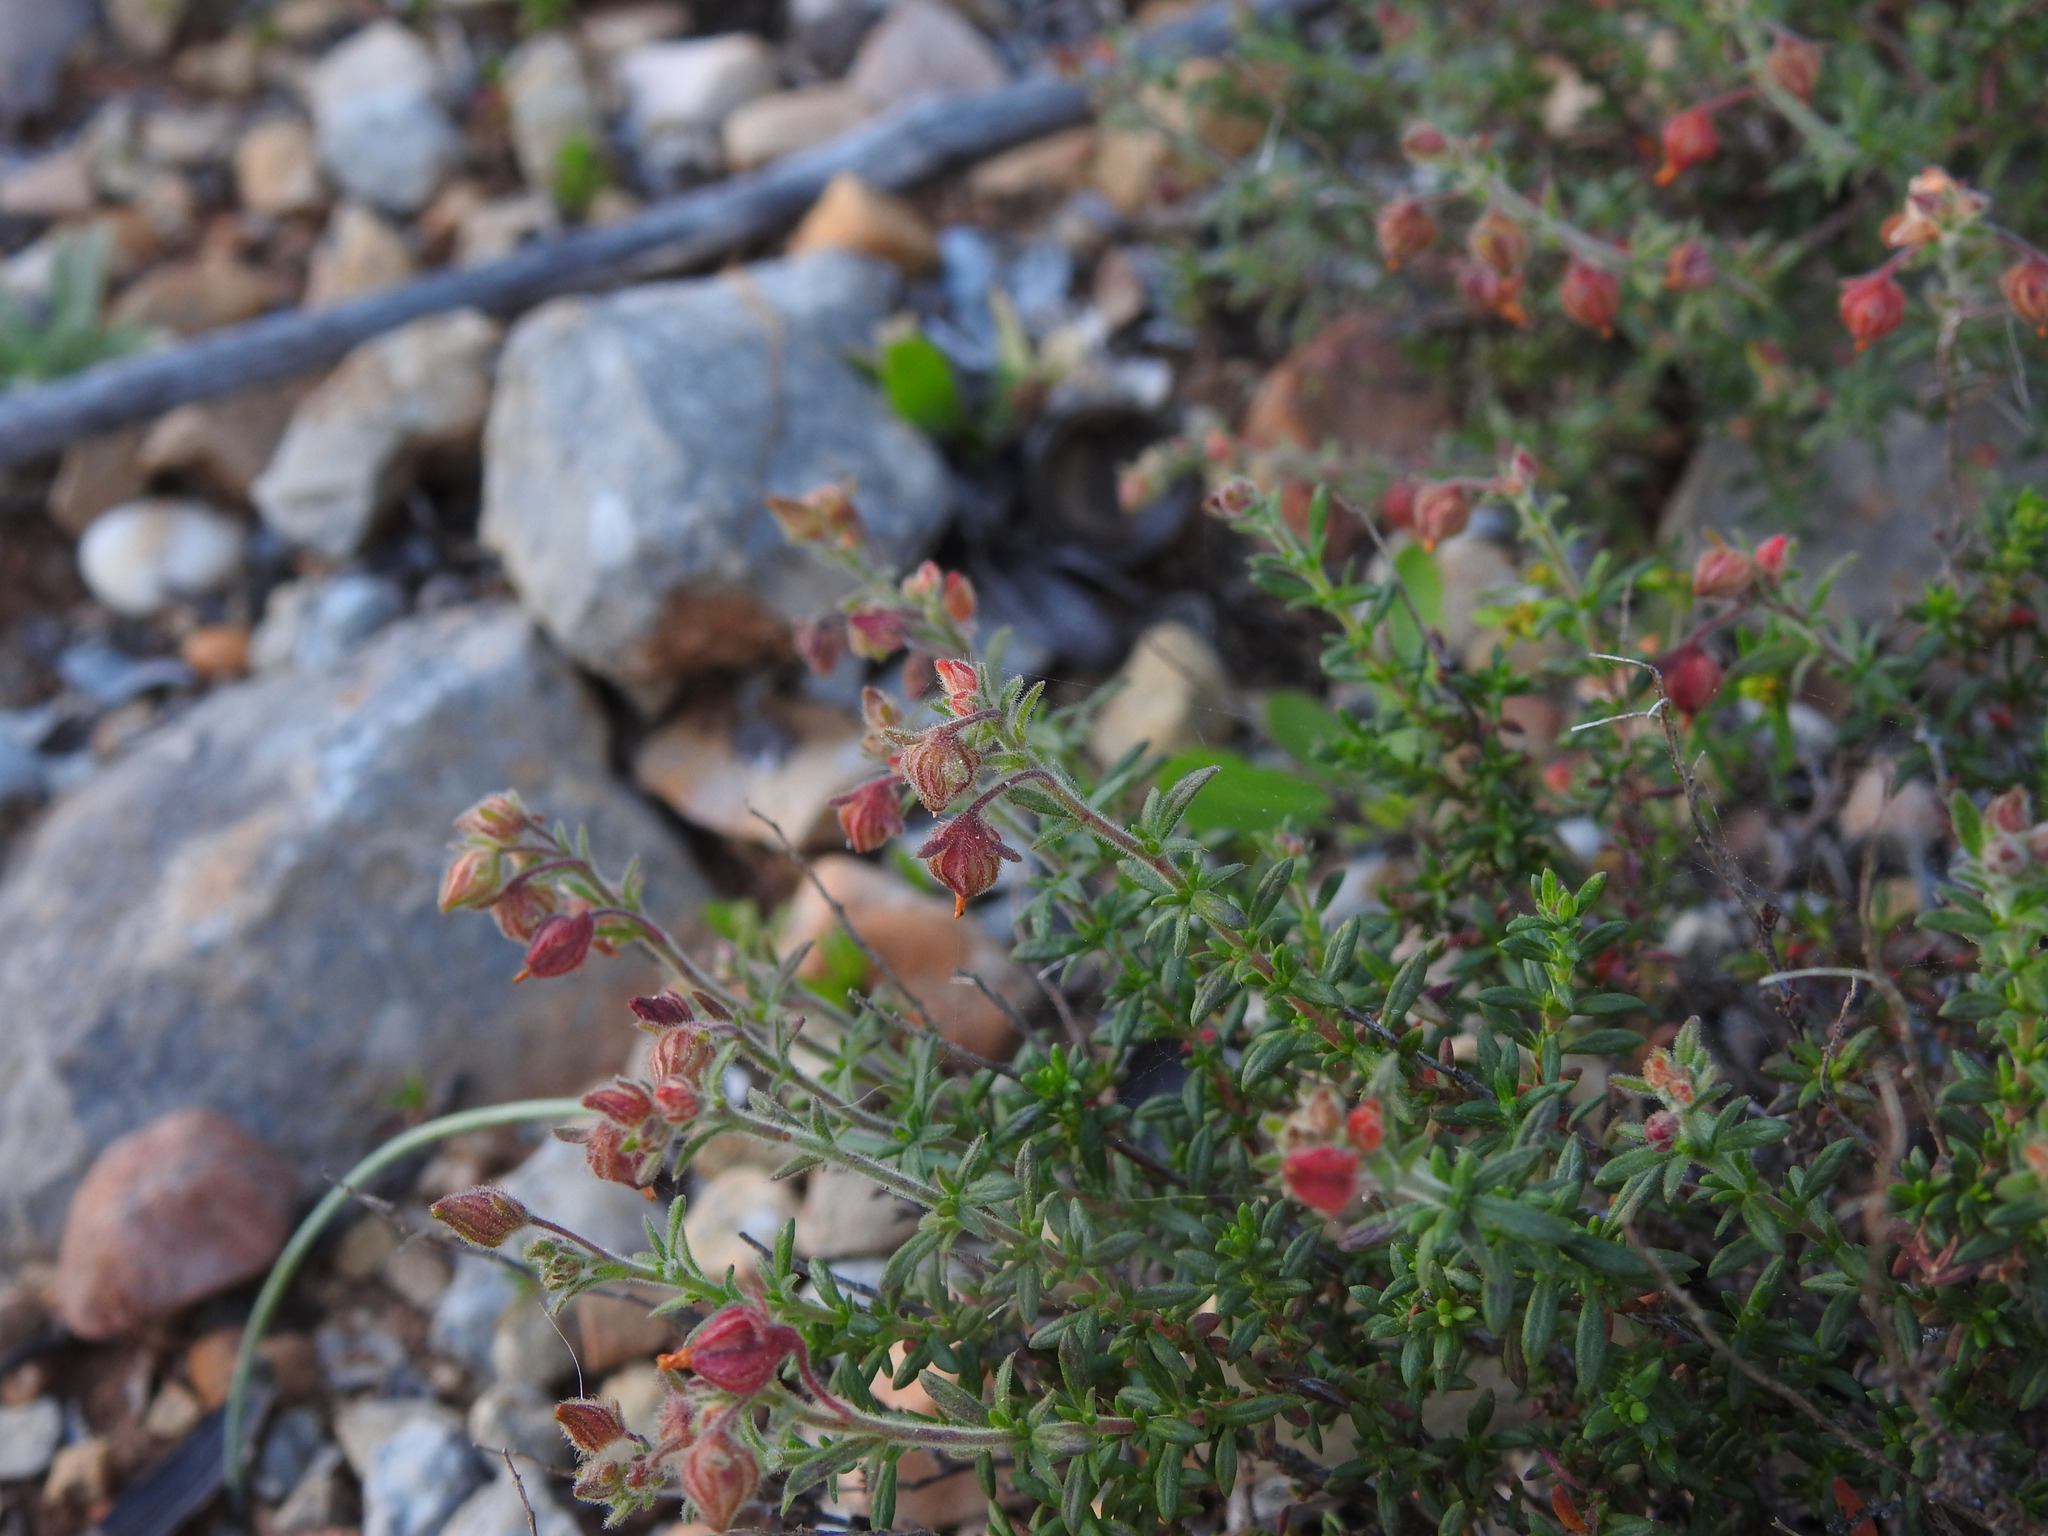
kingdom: Plantae
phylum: Tracheophyta
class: Magnoliopsida
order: Malvales
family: Cistaceae
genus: Fumana
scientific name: Fumana thymifolia
